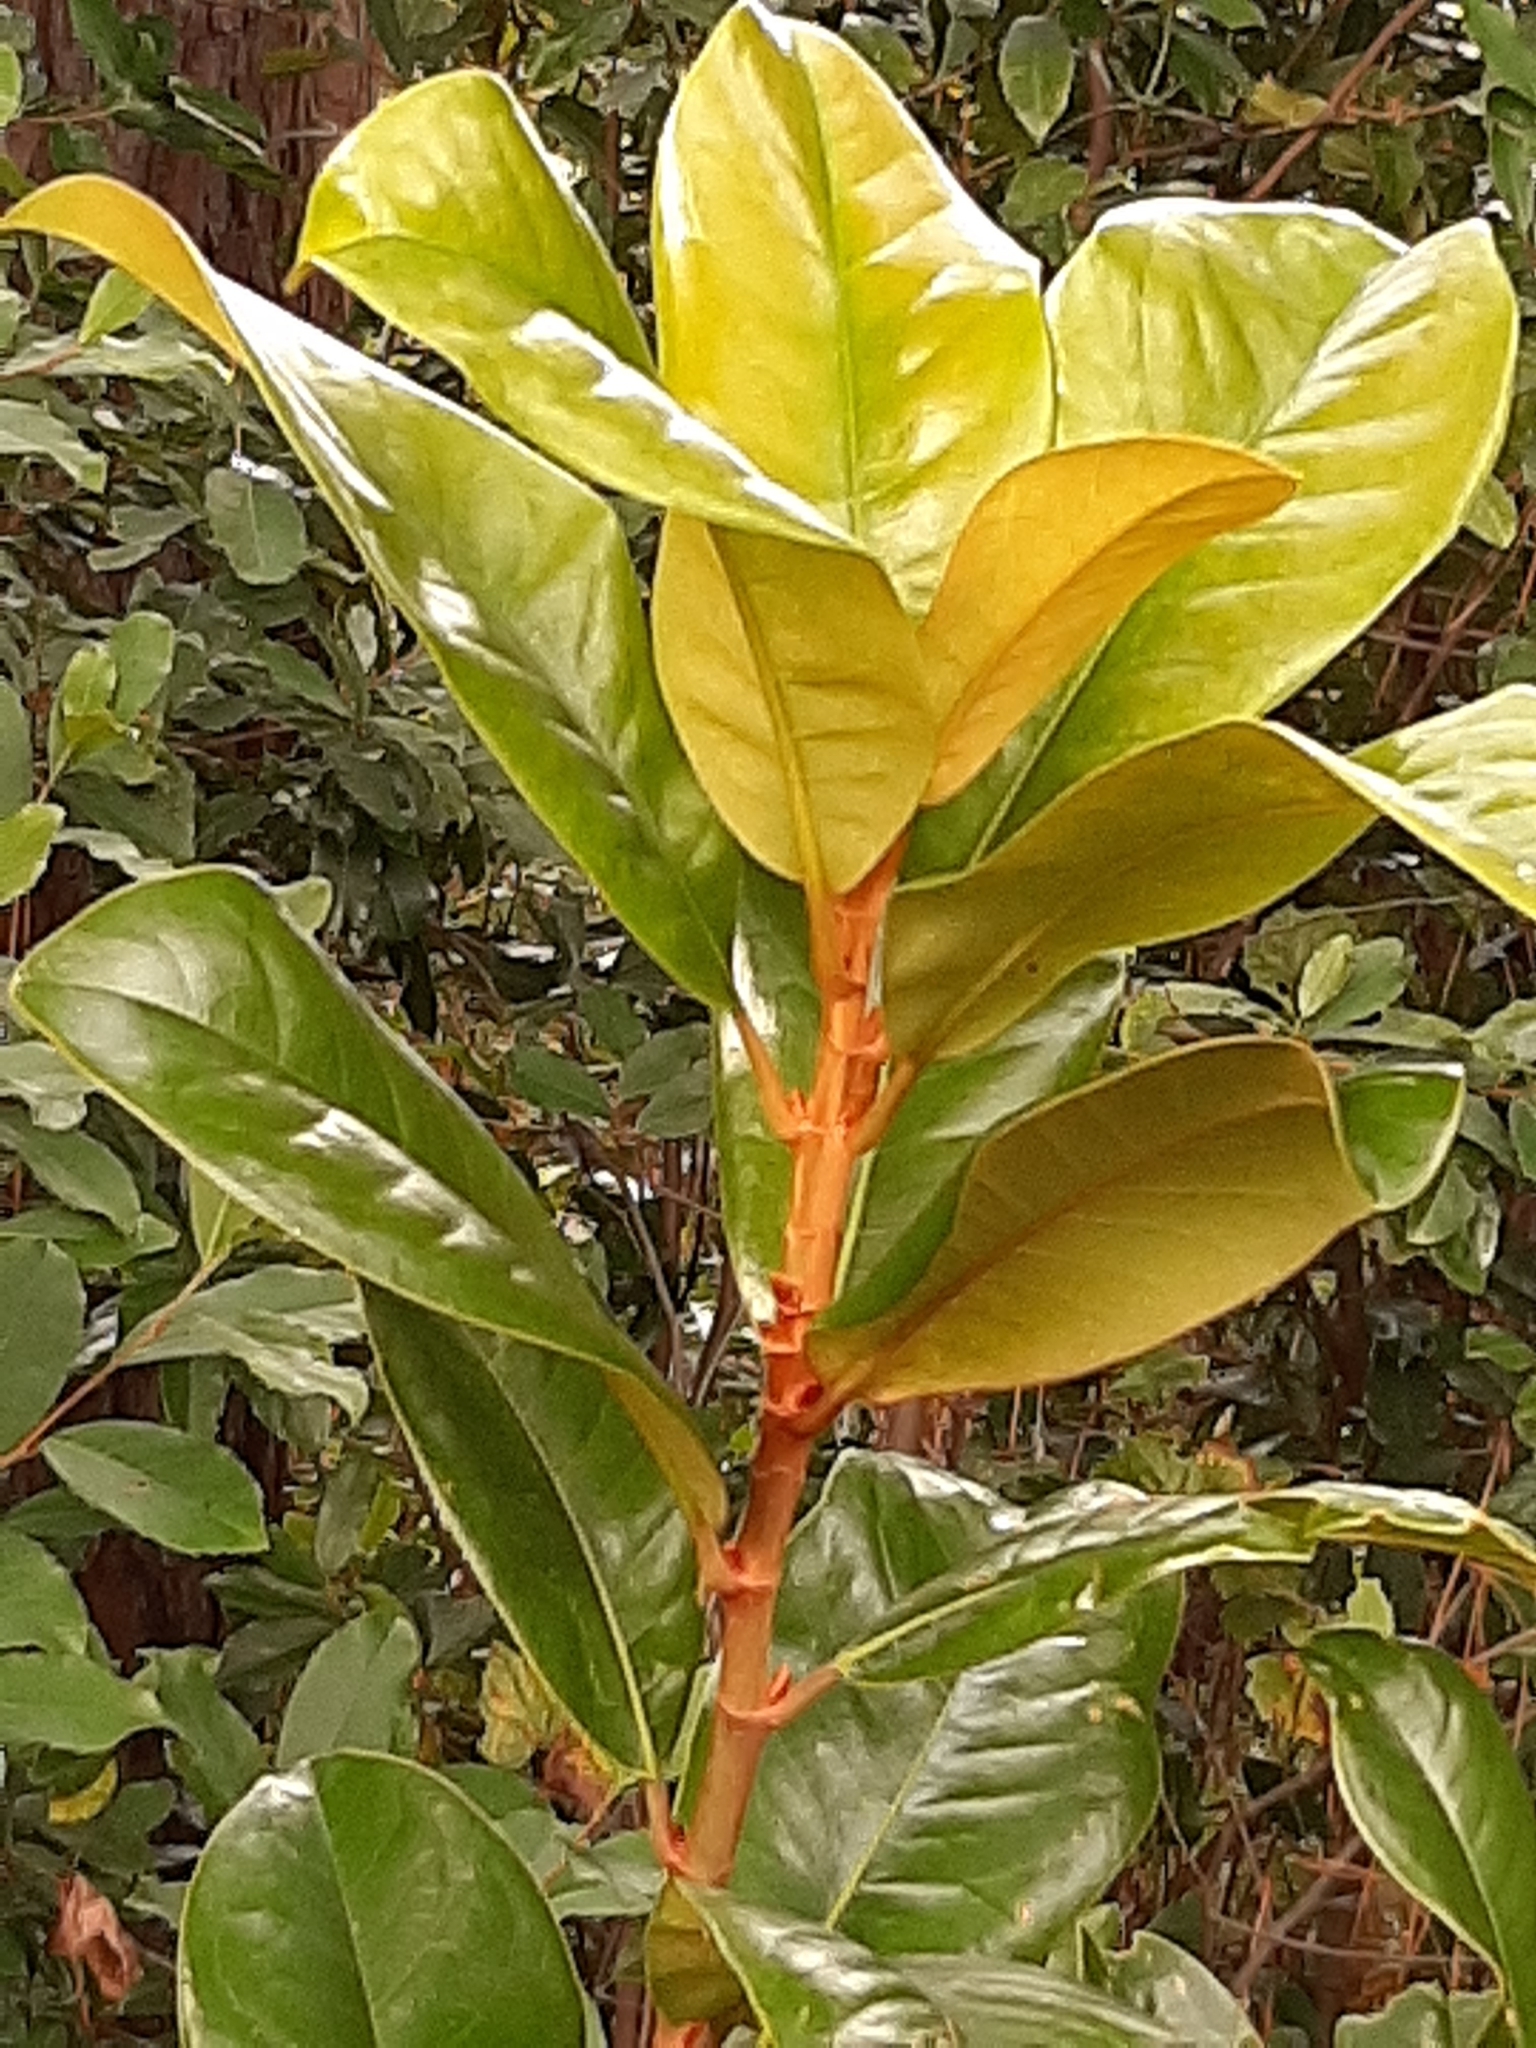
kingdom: Plantae
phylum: Tracheophyta
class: Magnoliopsida
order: Magnoliales
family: Magnoliaceae
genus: Magnolia
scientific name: Magnolia grandiflora
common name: Southern magnolia
